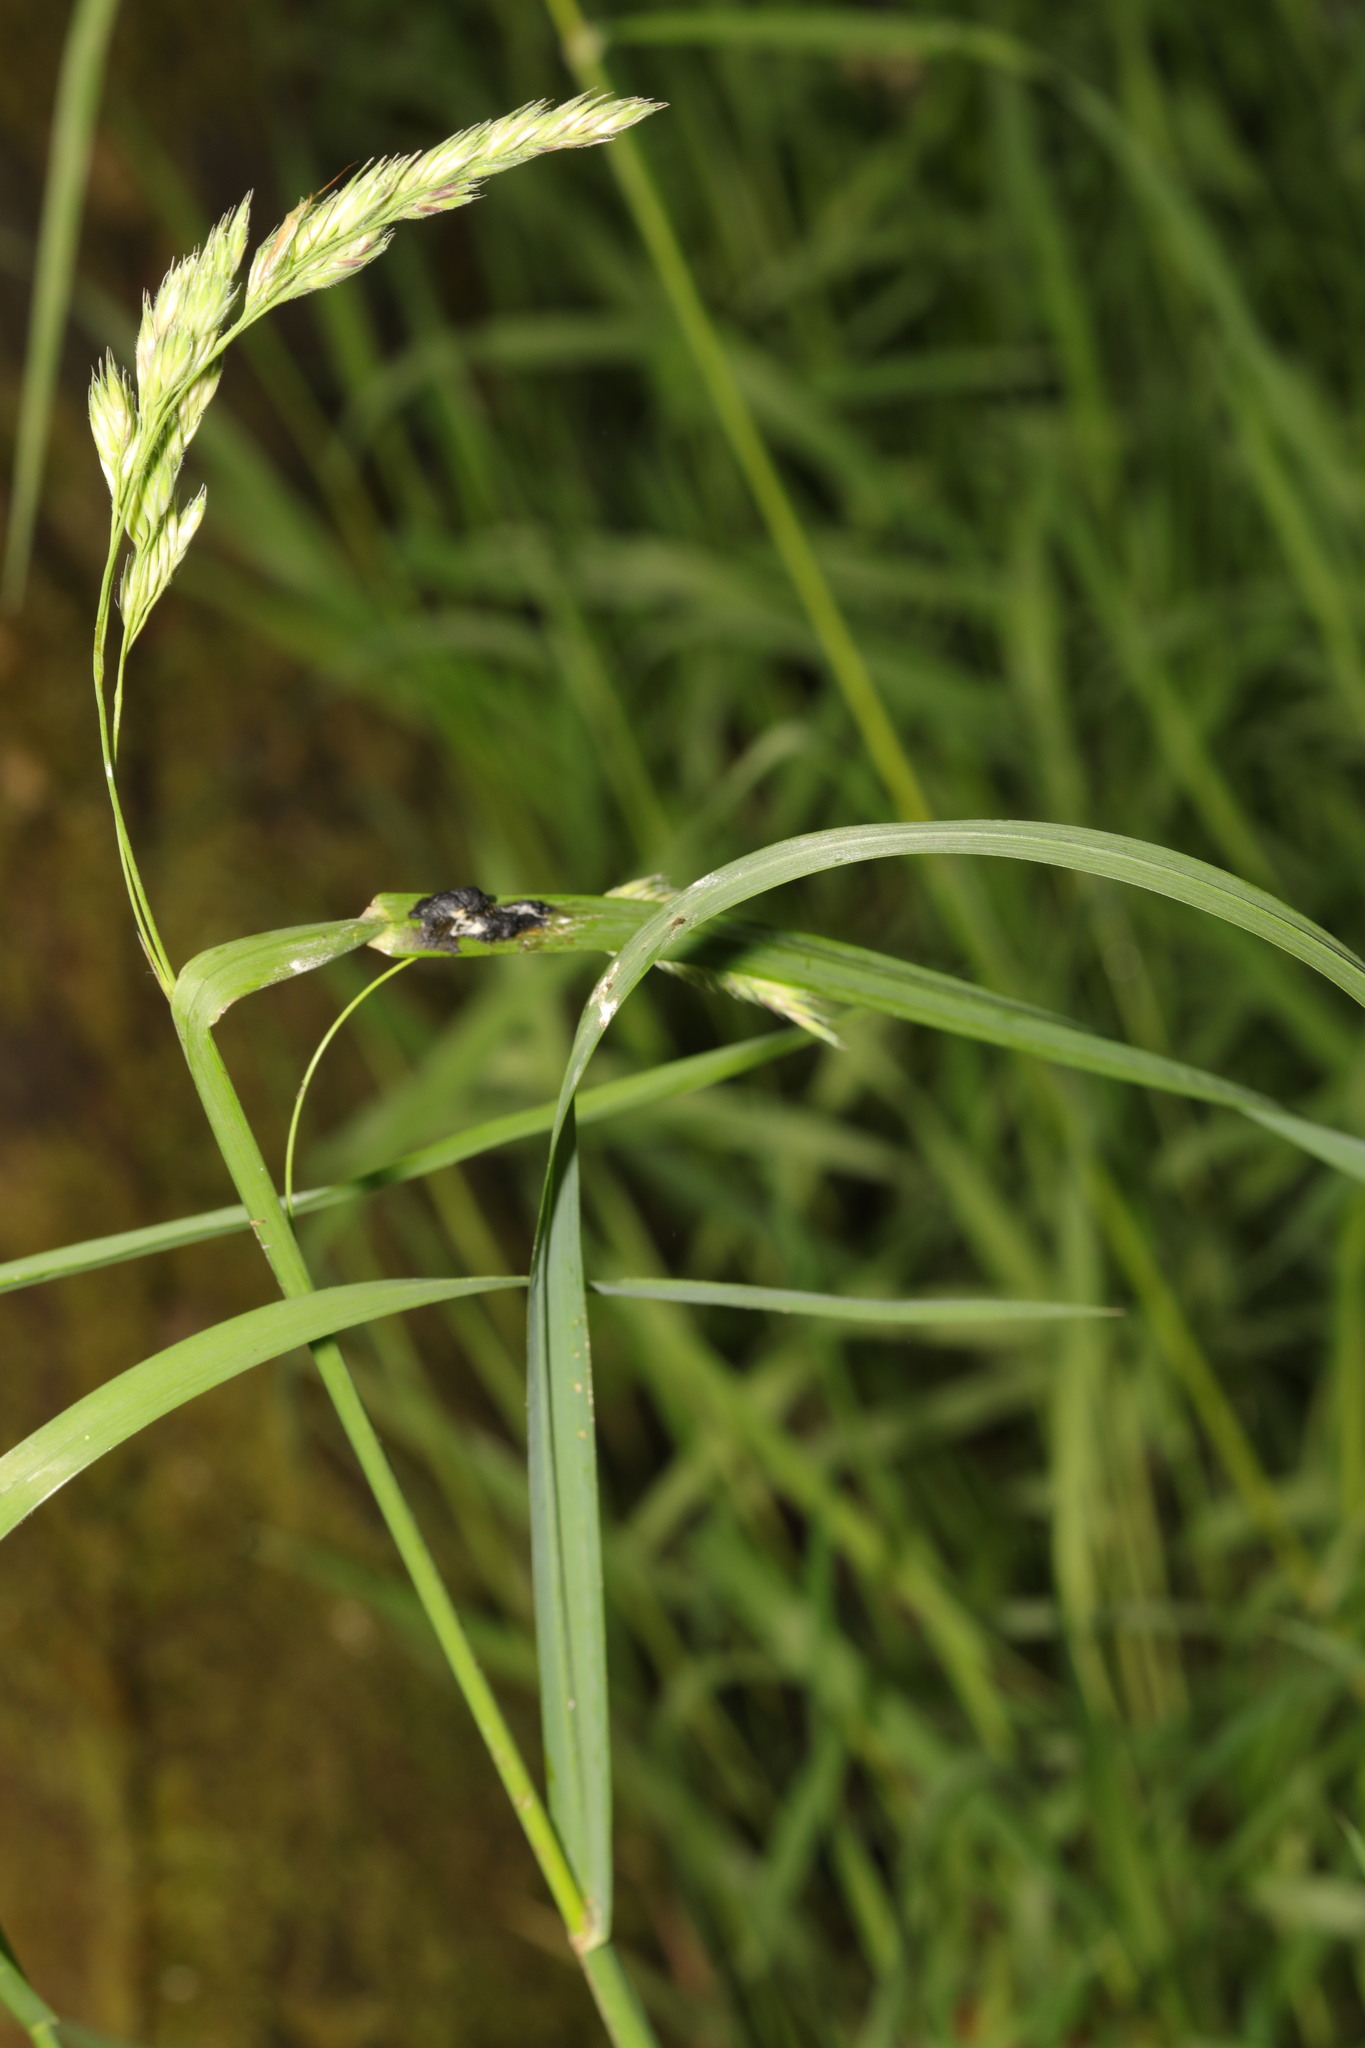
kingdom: Plantae
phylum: Tracheophyta
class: Liliopsida
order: Poales
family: Poaceae
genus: Dactylis
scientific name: Dactylis glomerata
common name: Orchardgrass
